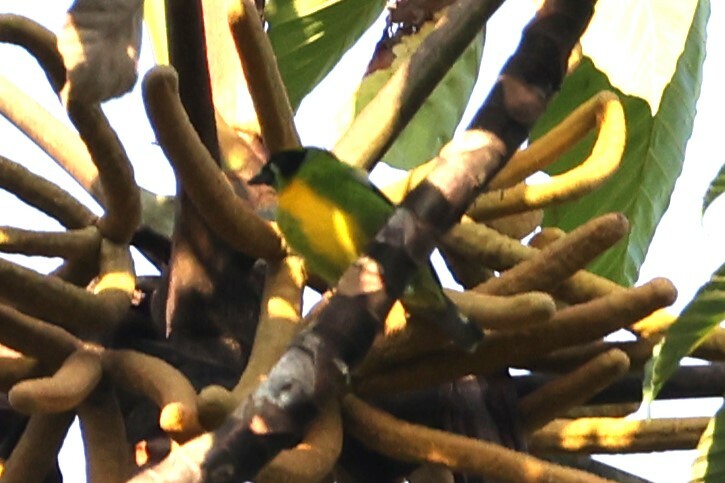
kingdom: Animalia
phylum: Chordata
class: Aves
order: Passeriformes
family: Thraupidae
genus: Tangara
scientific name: Tangara schrankii
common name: Green-and-gold tanager
